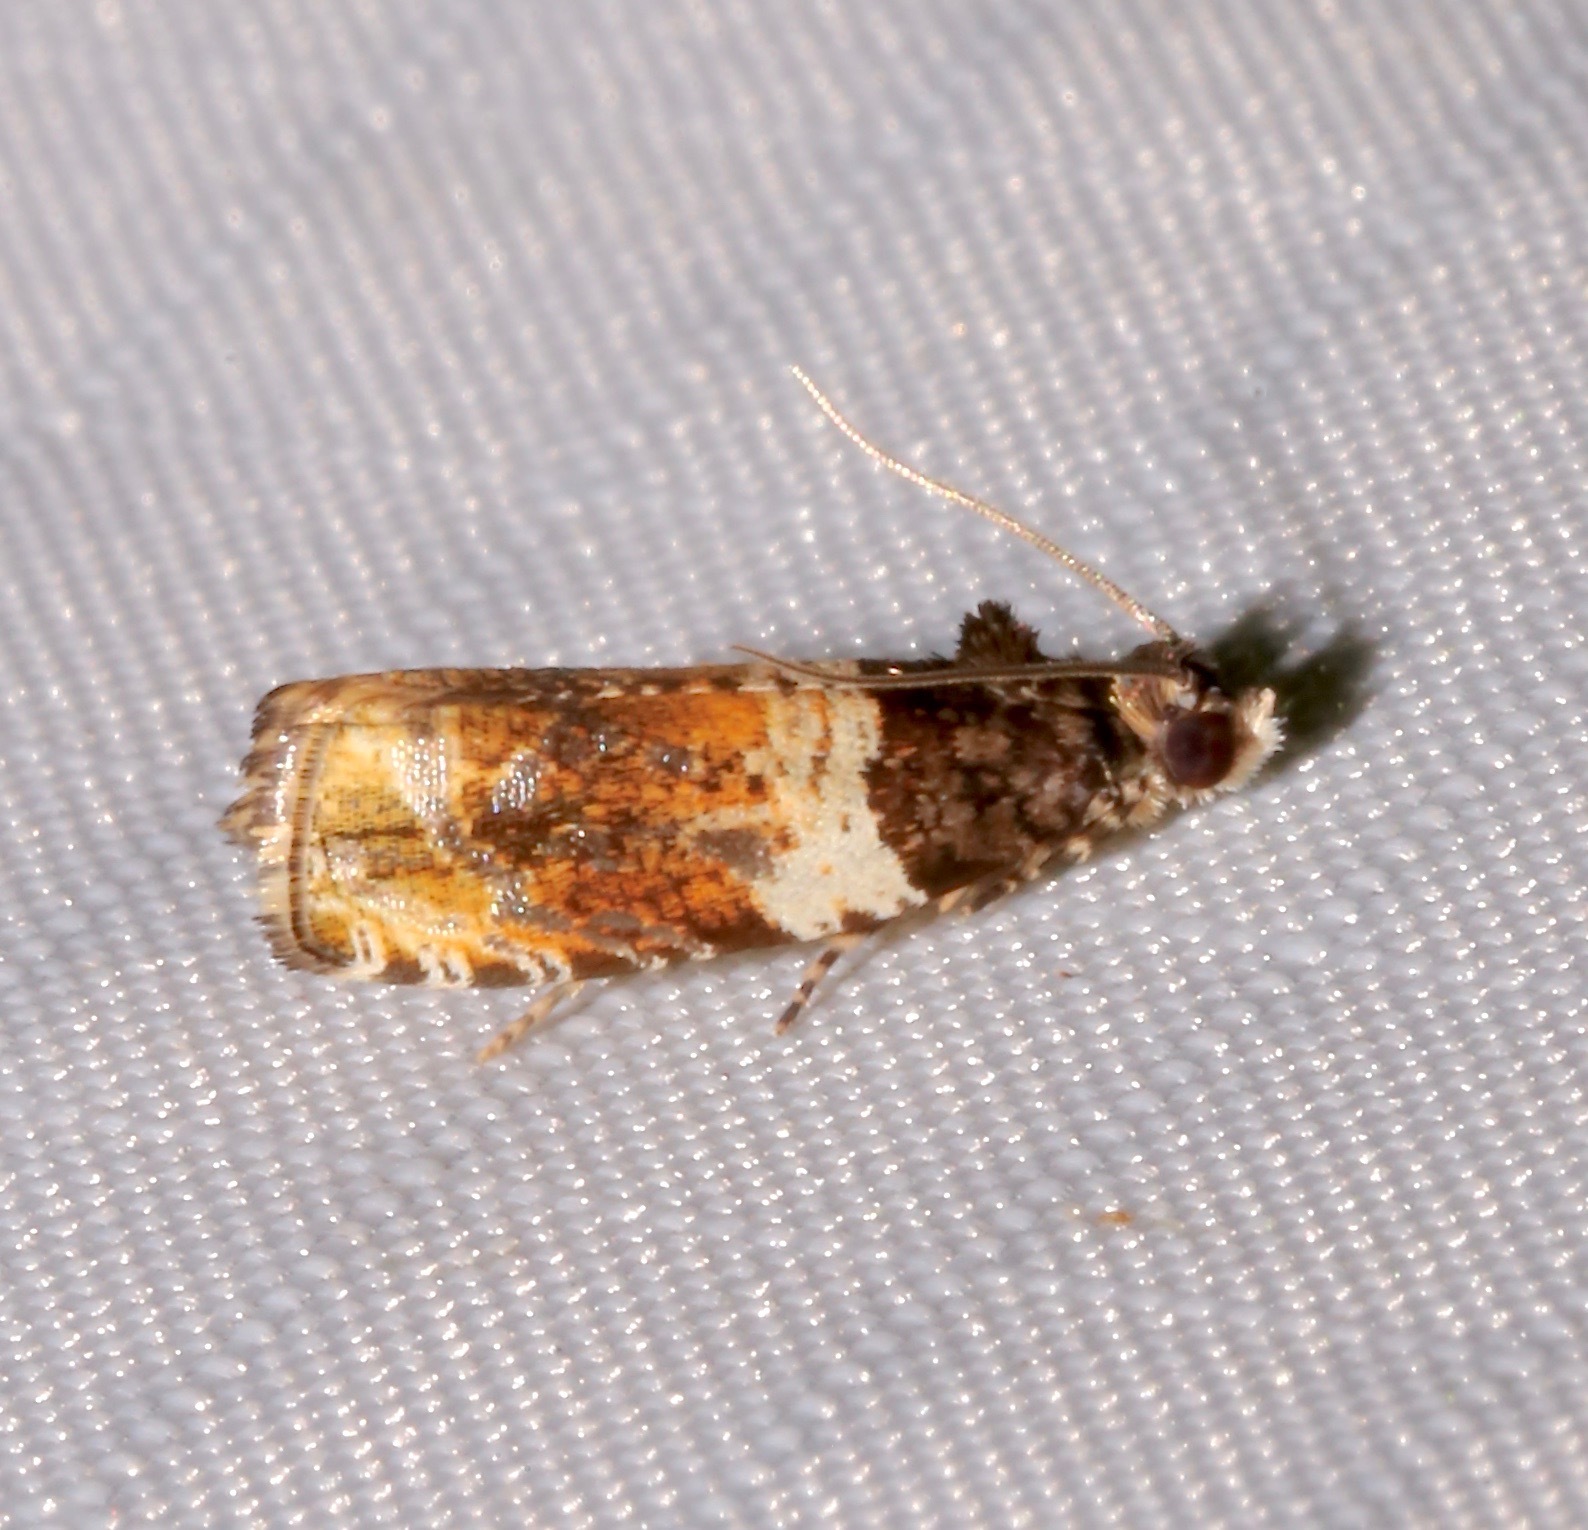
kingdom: Animalia
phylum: Arthropoda
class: Insecta
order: Lepidoptera
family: Tortricidae
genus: Olethreutes
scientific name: Olethreutes fasciatana
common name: Banded olethreutes moth
